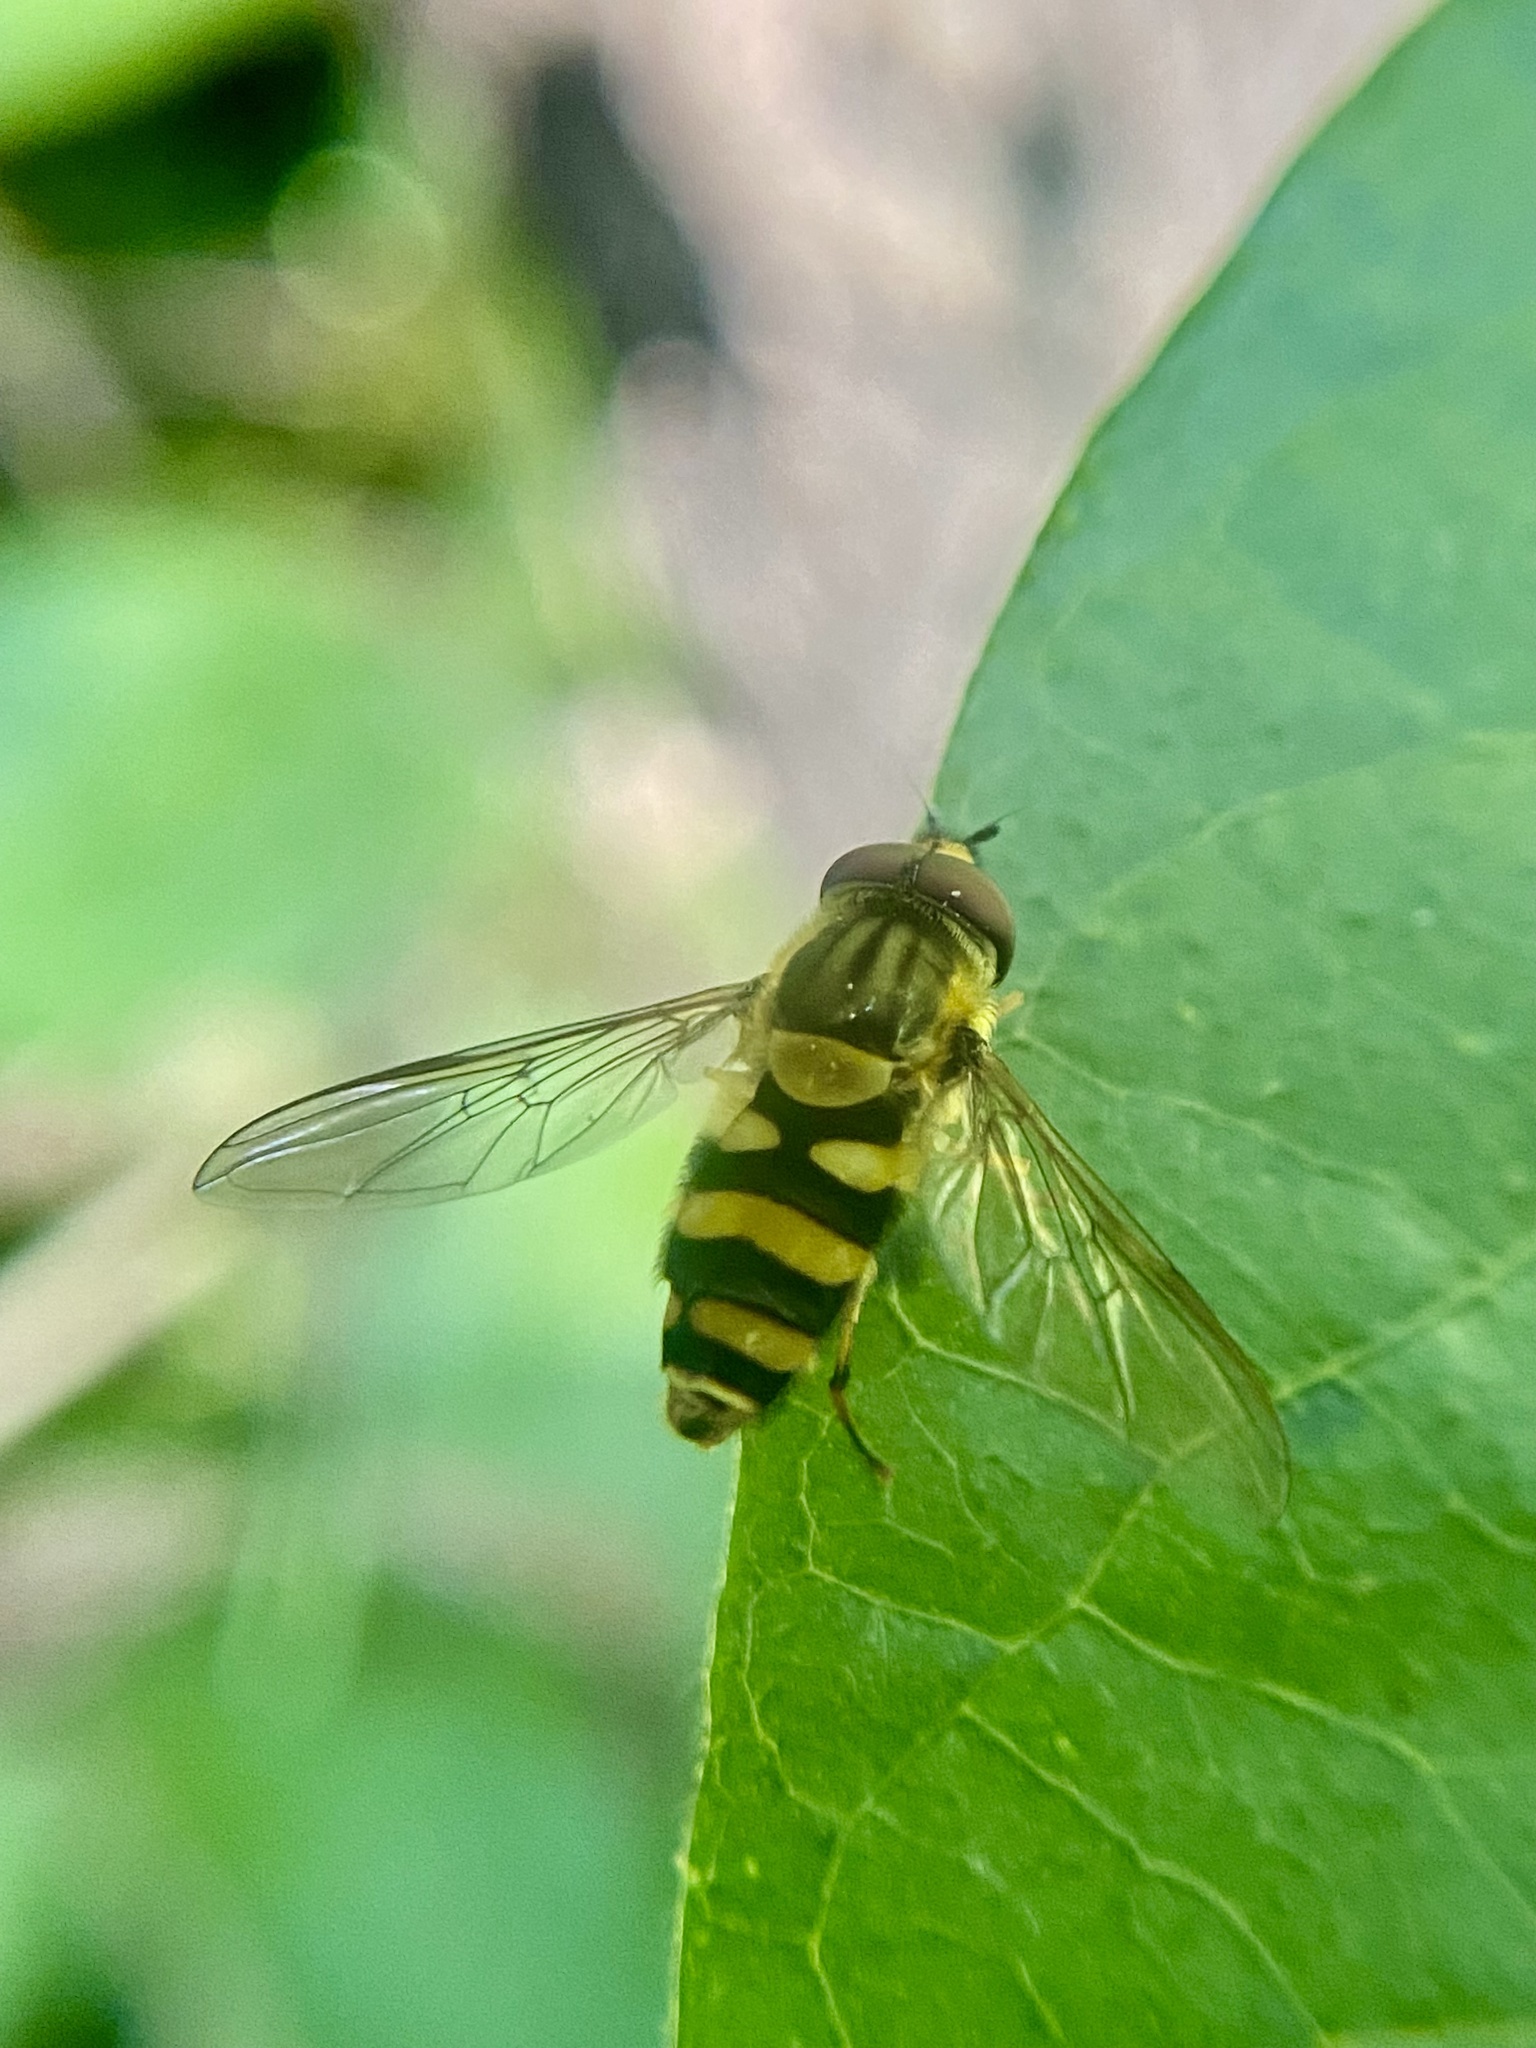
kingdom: Animalia
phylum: Arthropoda
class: Insecta
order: Diptera
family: Syrphidae
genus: Syrphus
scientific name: Syrphus knabi
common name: Eastern flower fly
